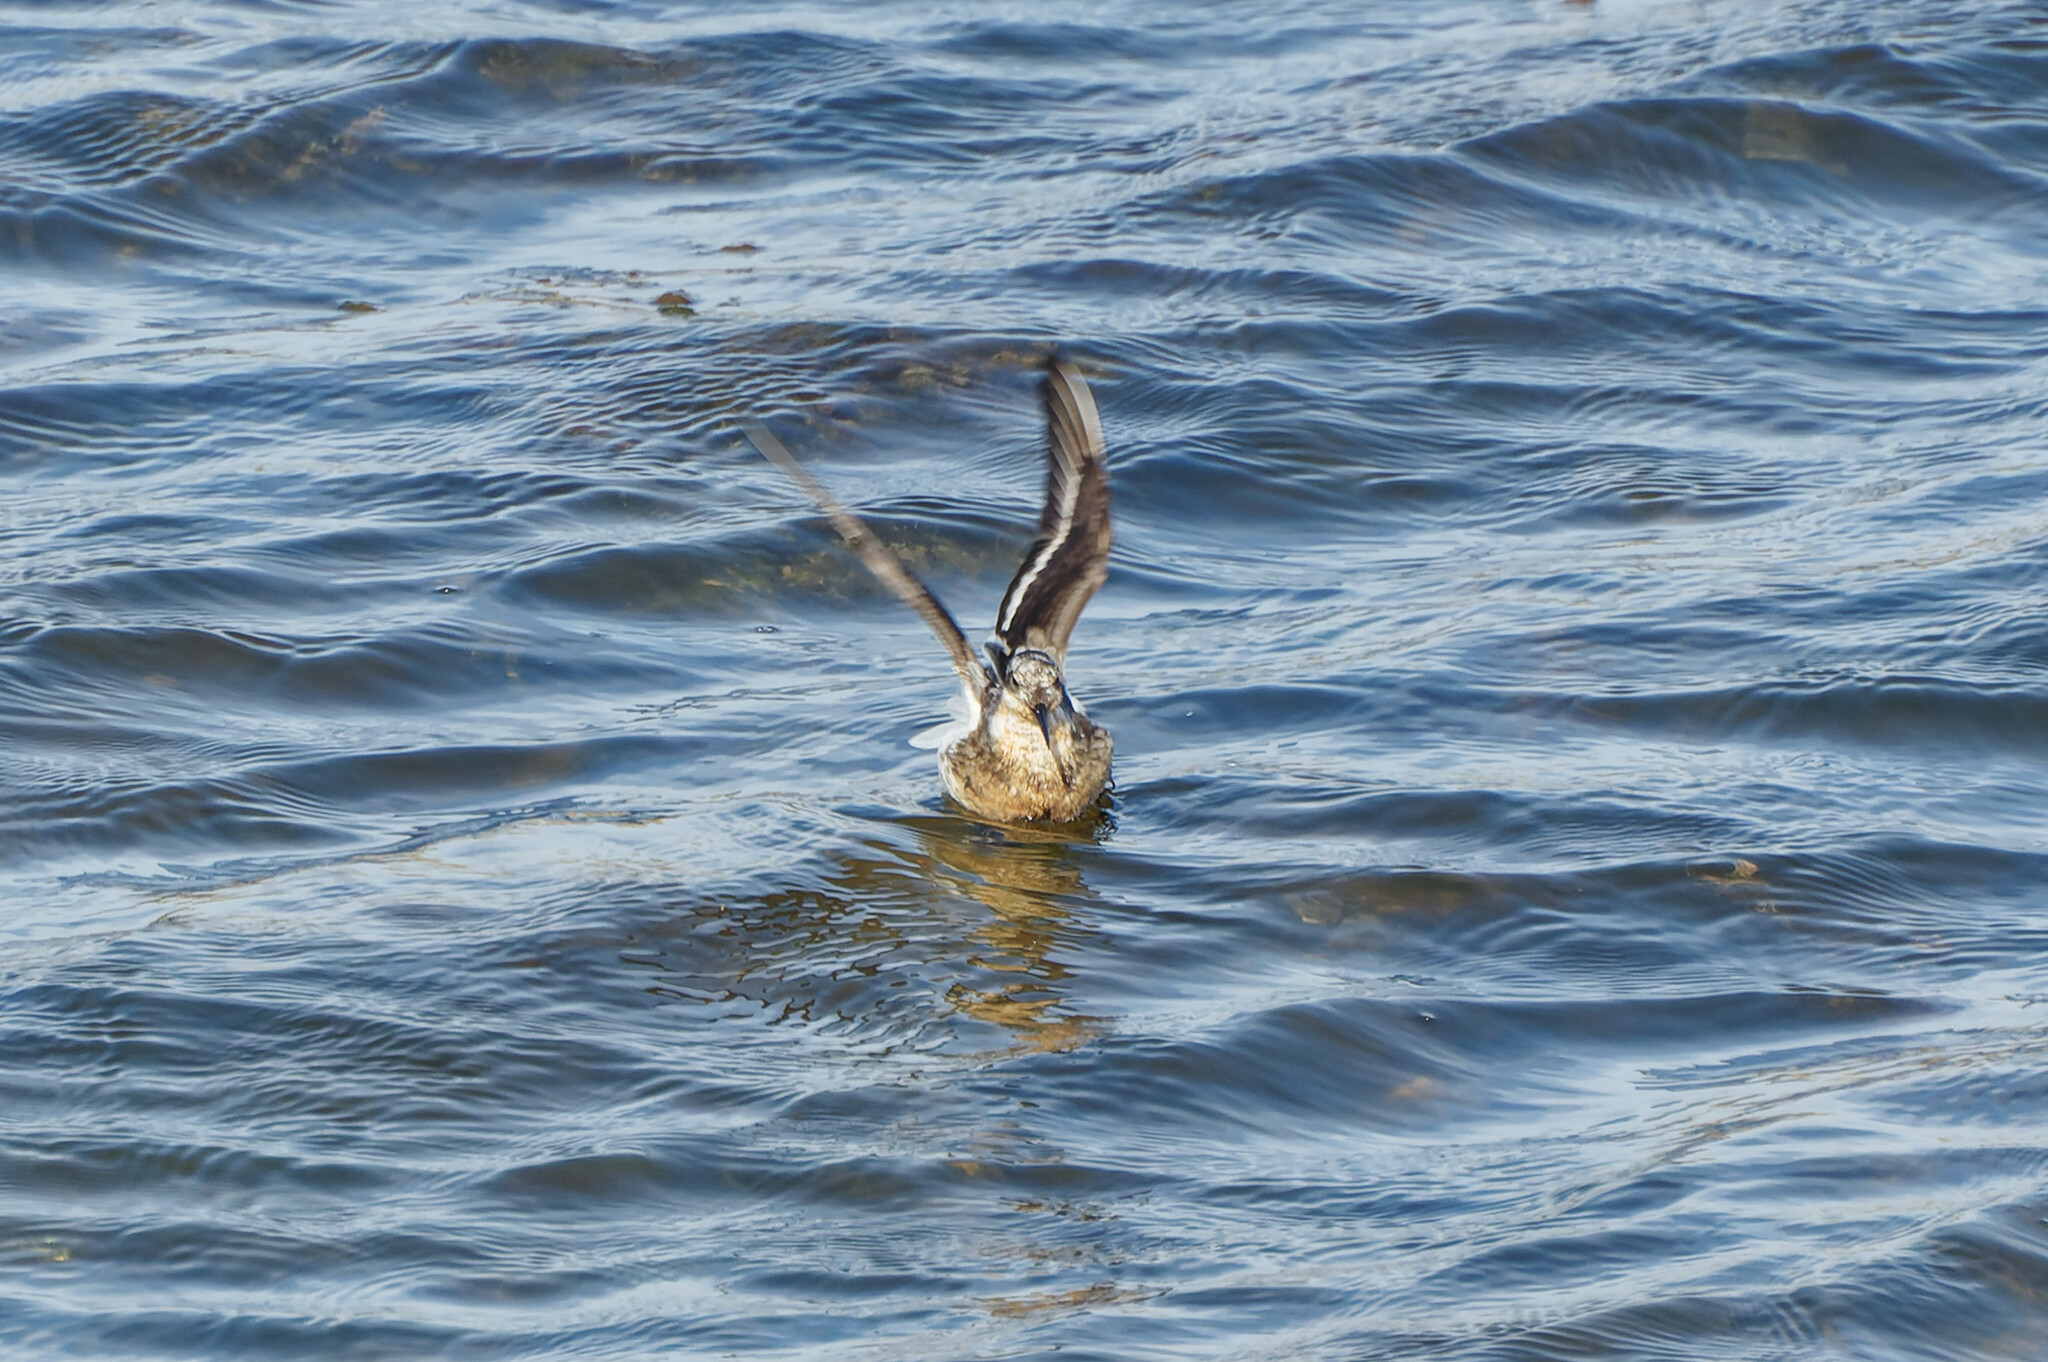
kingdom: Animalia
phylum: Chordata
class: Aves
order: Charadriiformes
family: Scolopacidae
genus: Phalaropus
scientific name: Phalaropus lobatus
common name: Red-necked phalarope
